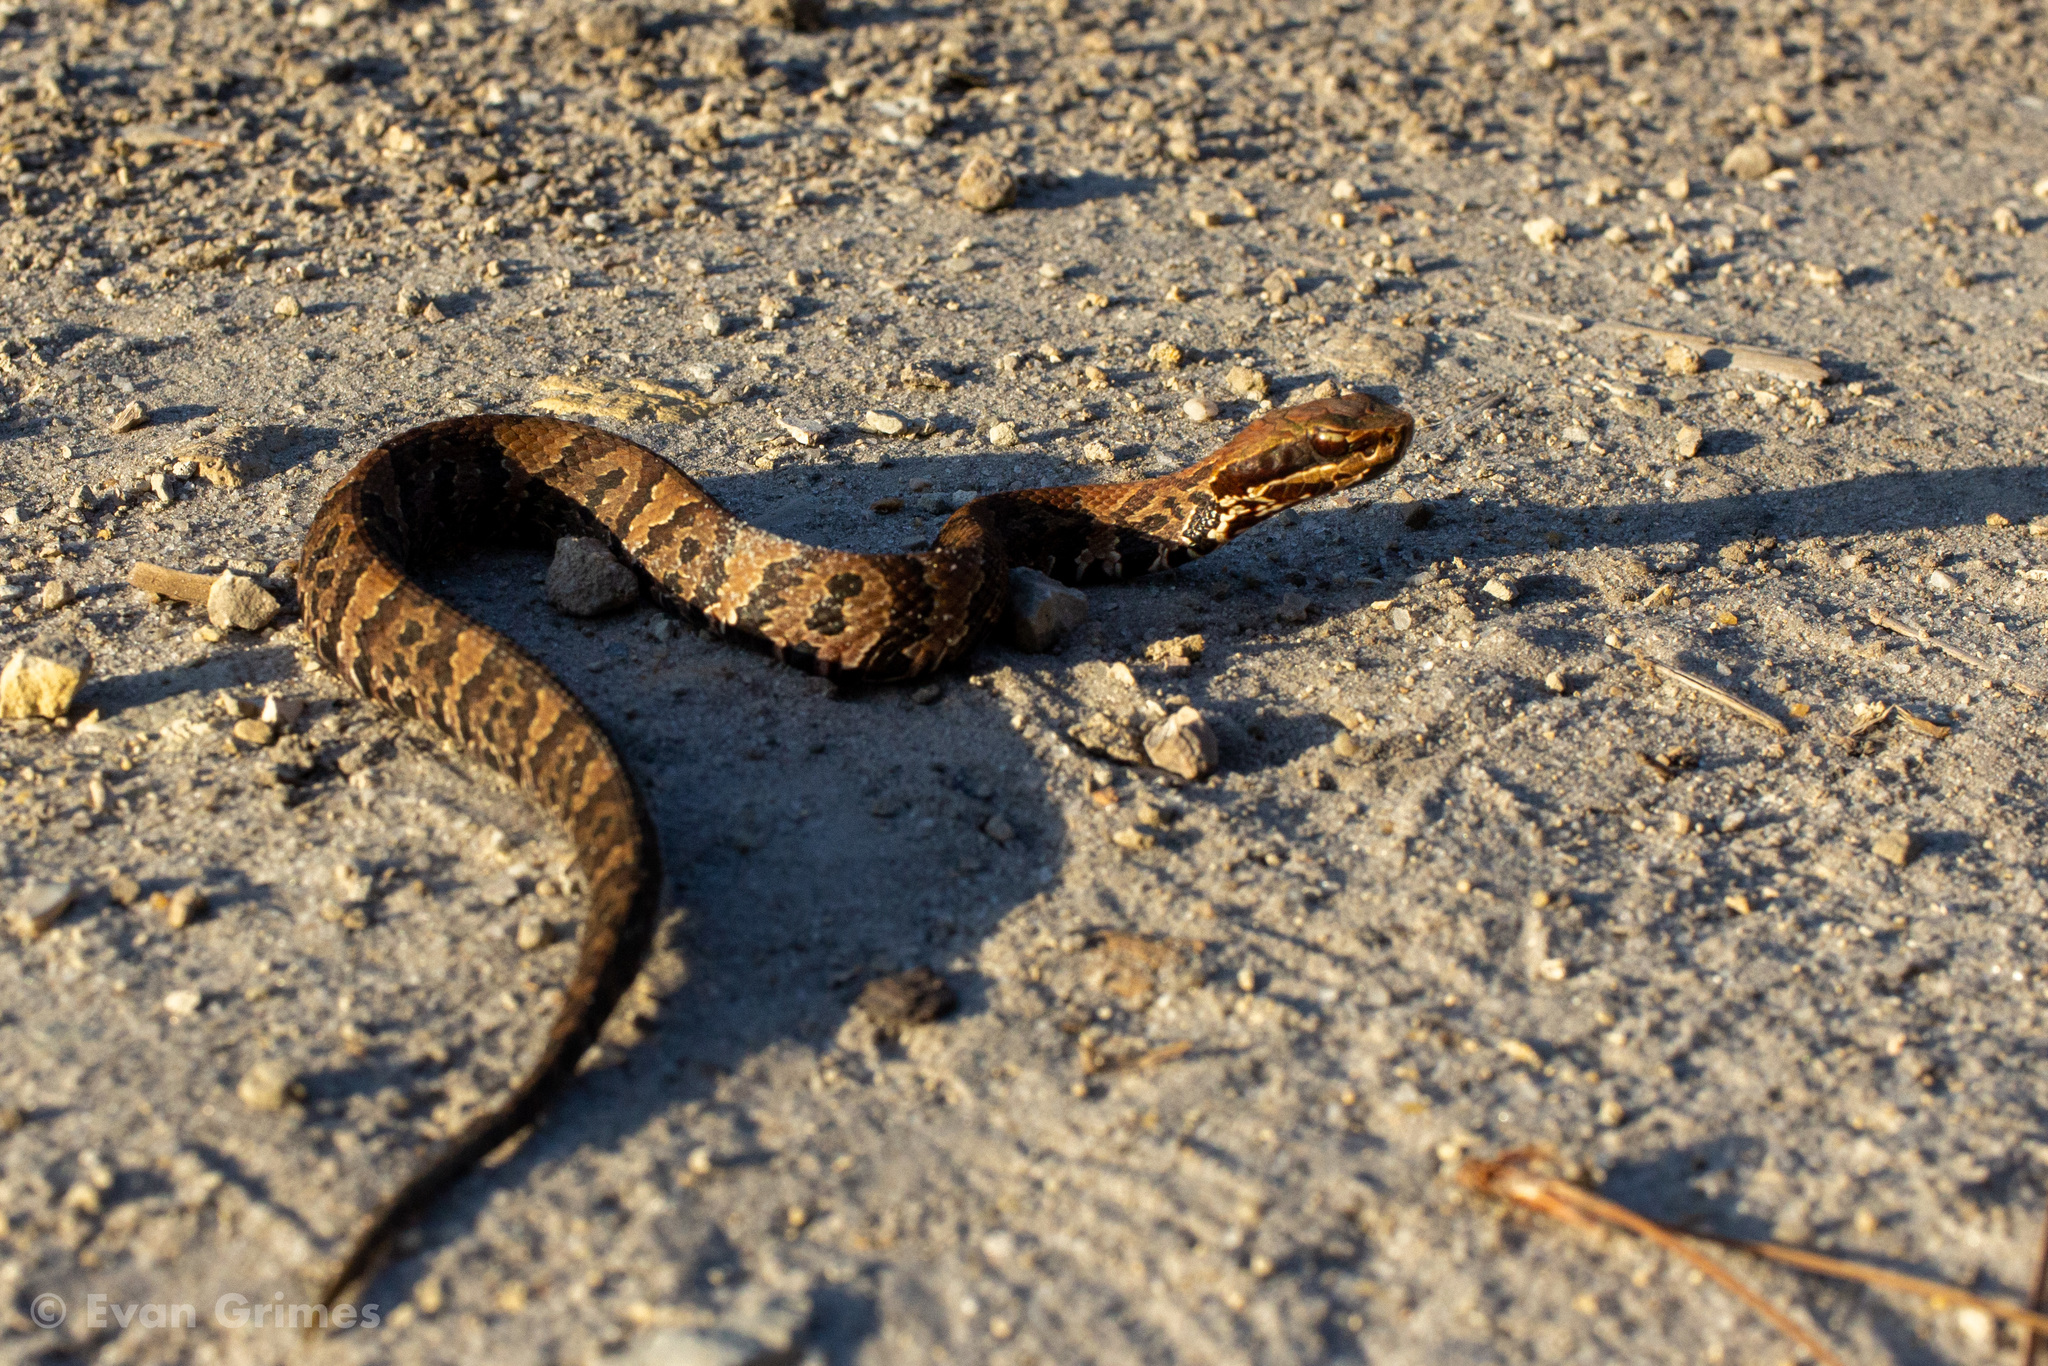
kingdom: Animalia
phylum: Chordata
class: Squamata
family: Viperidae
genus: Agkistrodon
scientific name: Agkistrodon conanti
